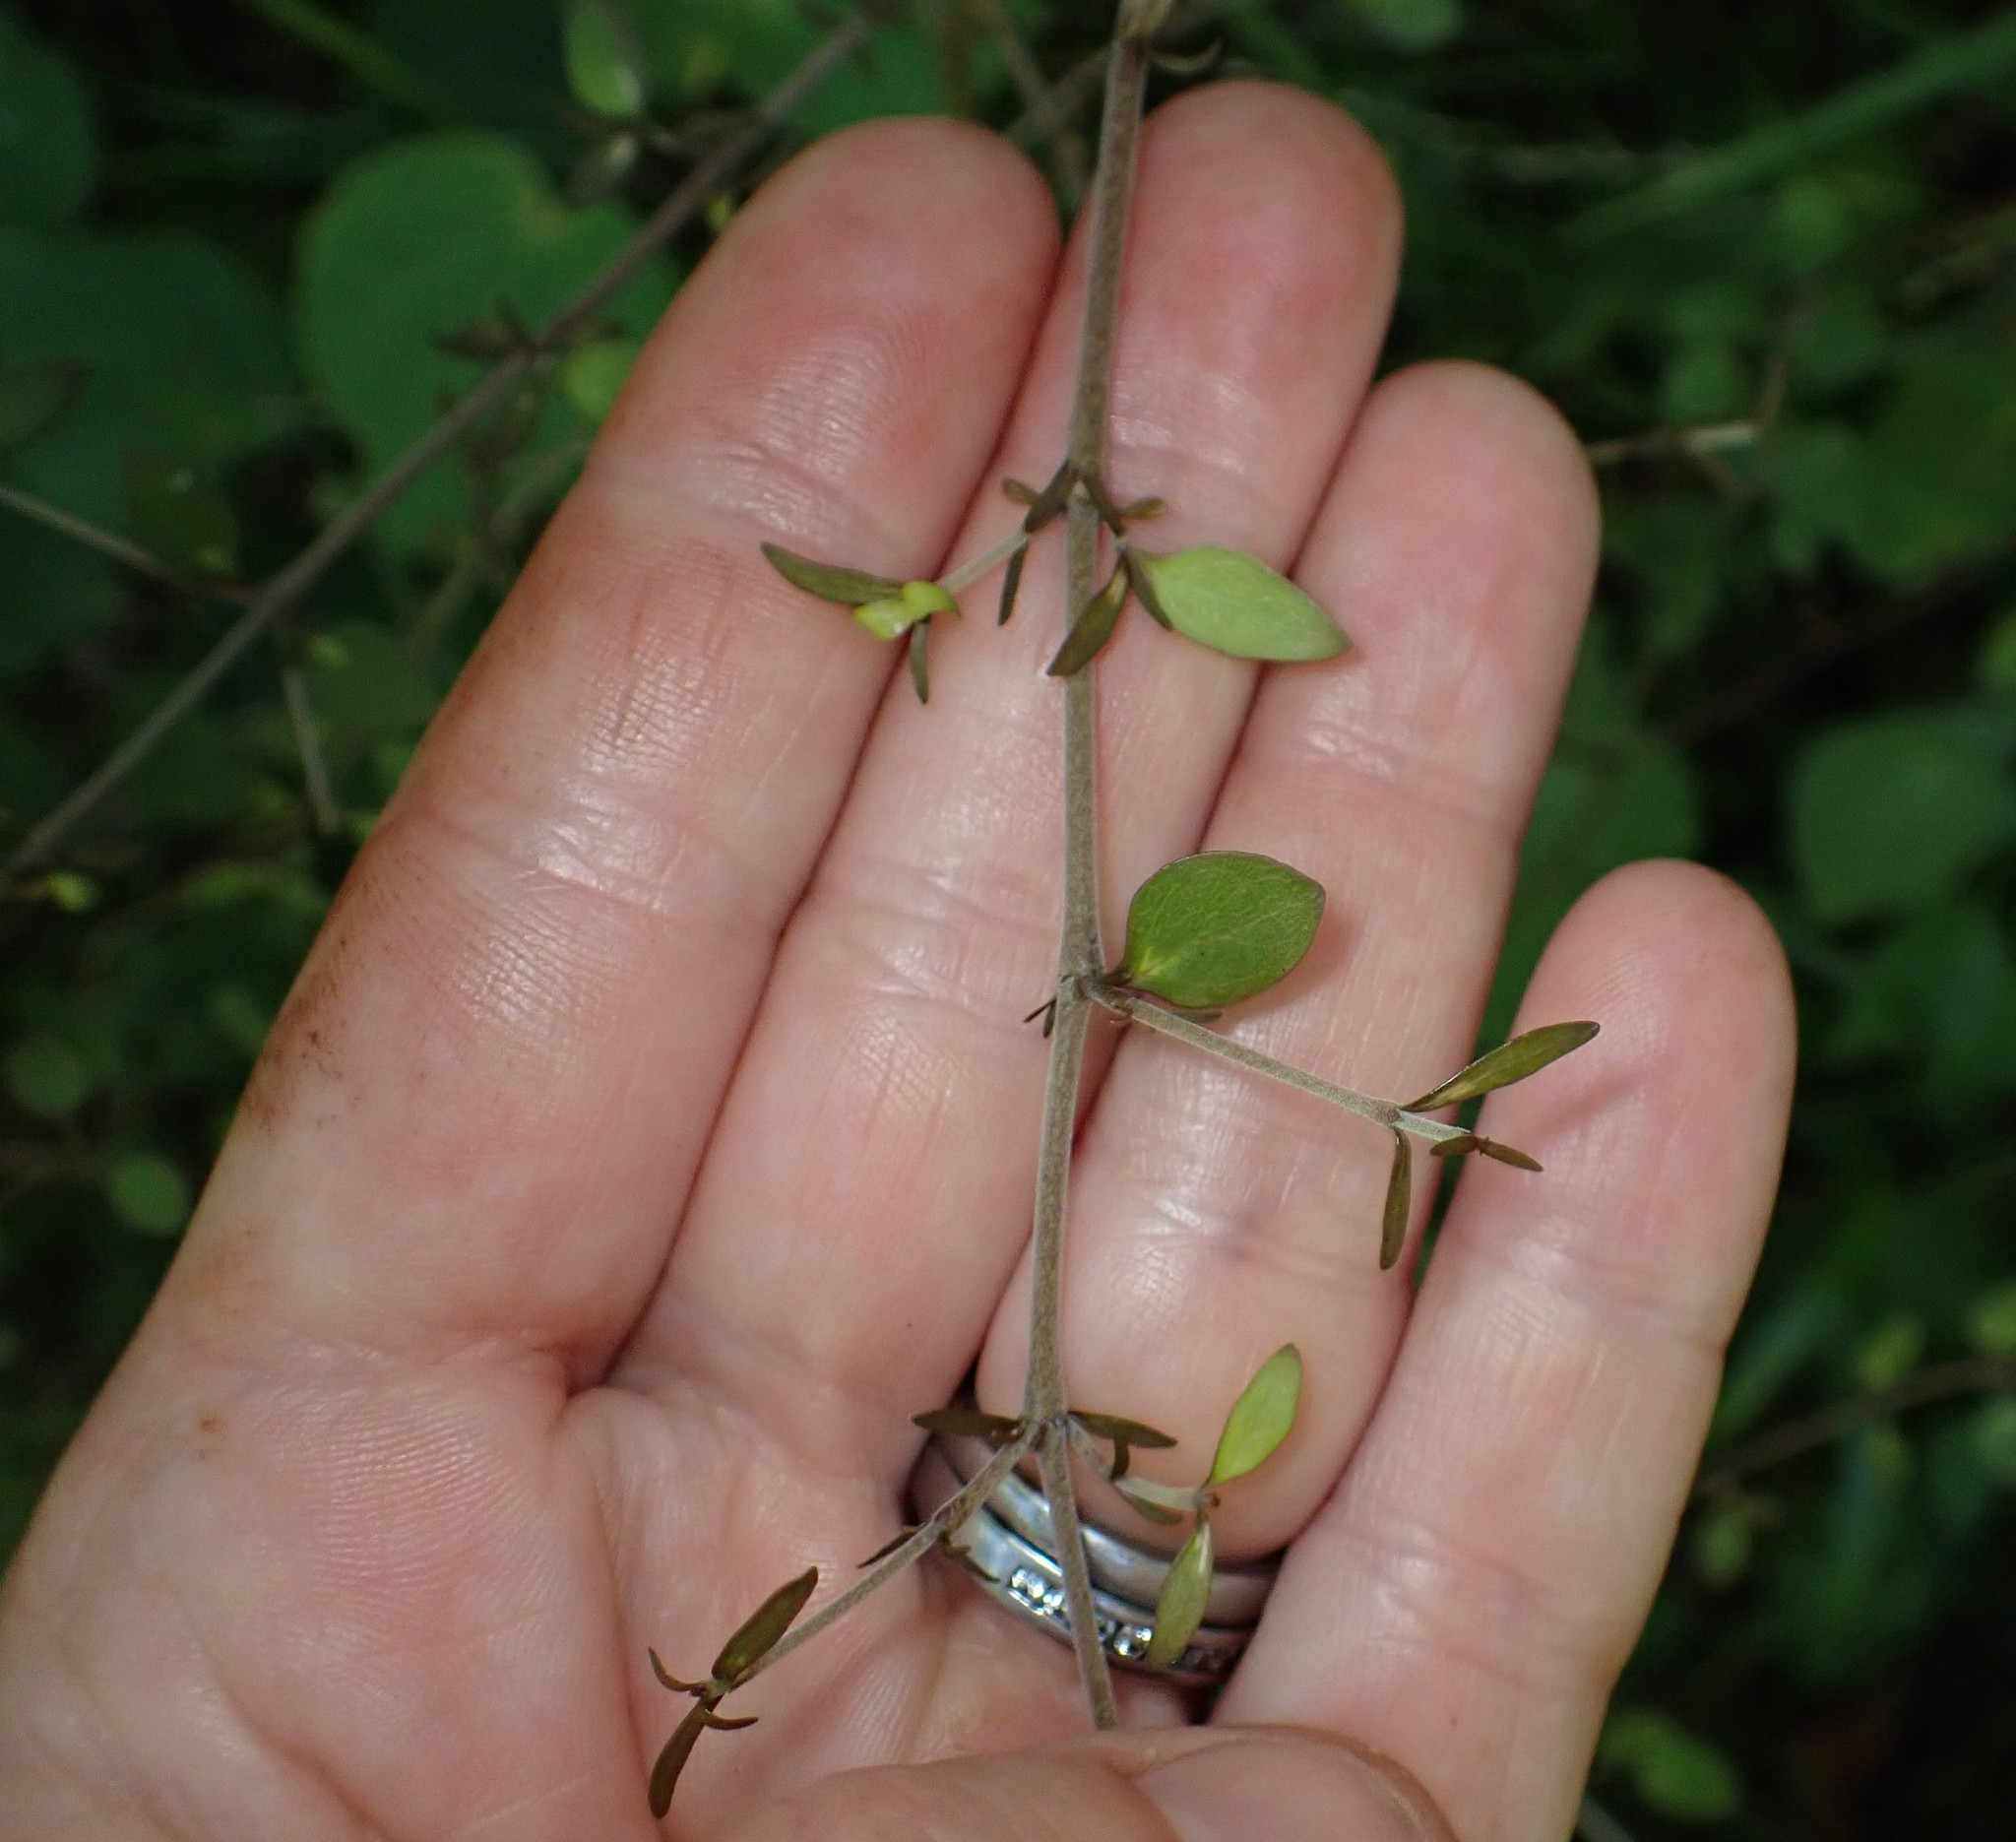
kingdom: Plantae
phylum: Tracheophyta
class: Magnoliopsida
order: Gentianales
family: Rubiaceae
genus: Coprosma
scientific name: Coprosma rhamnoides
